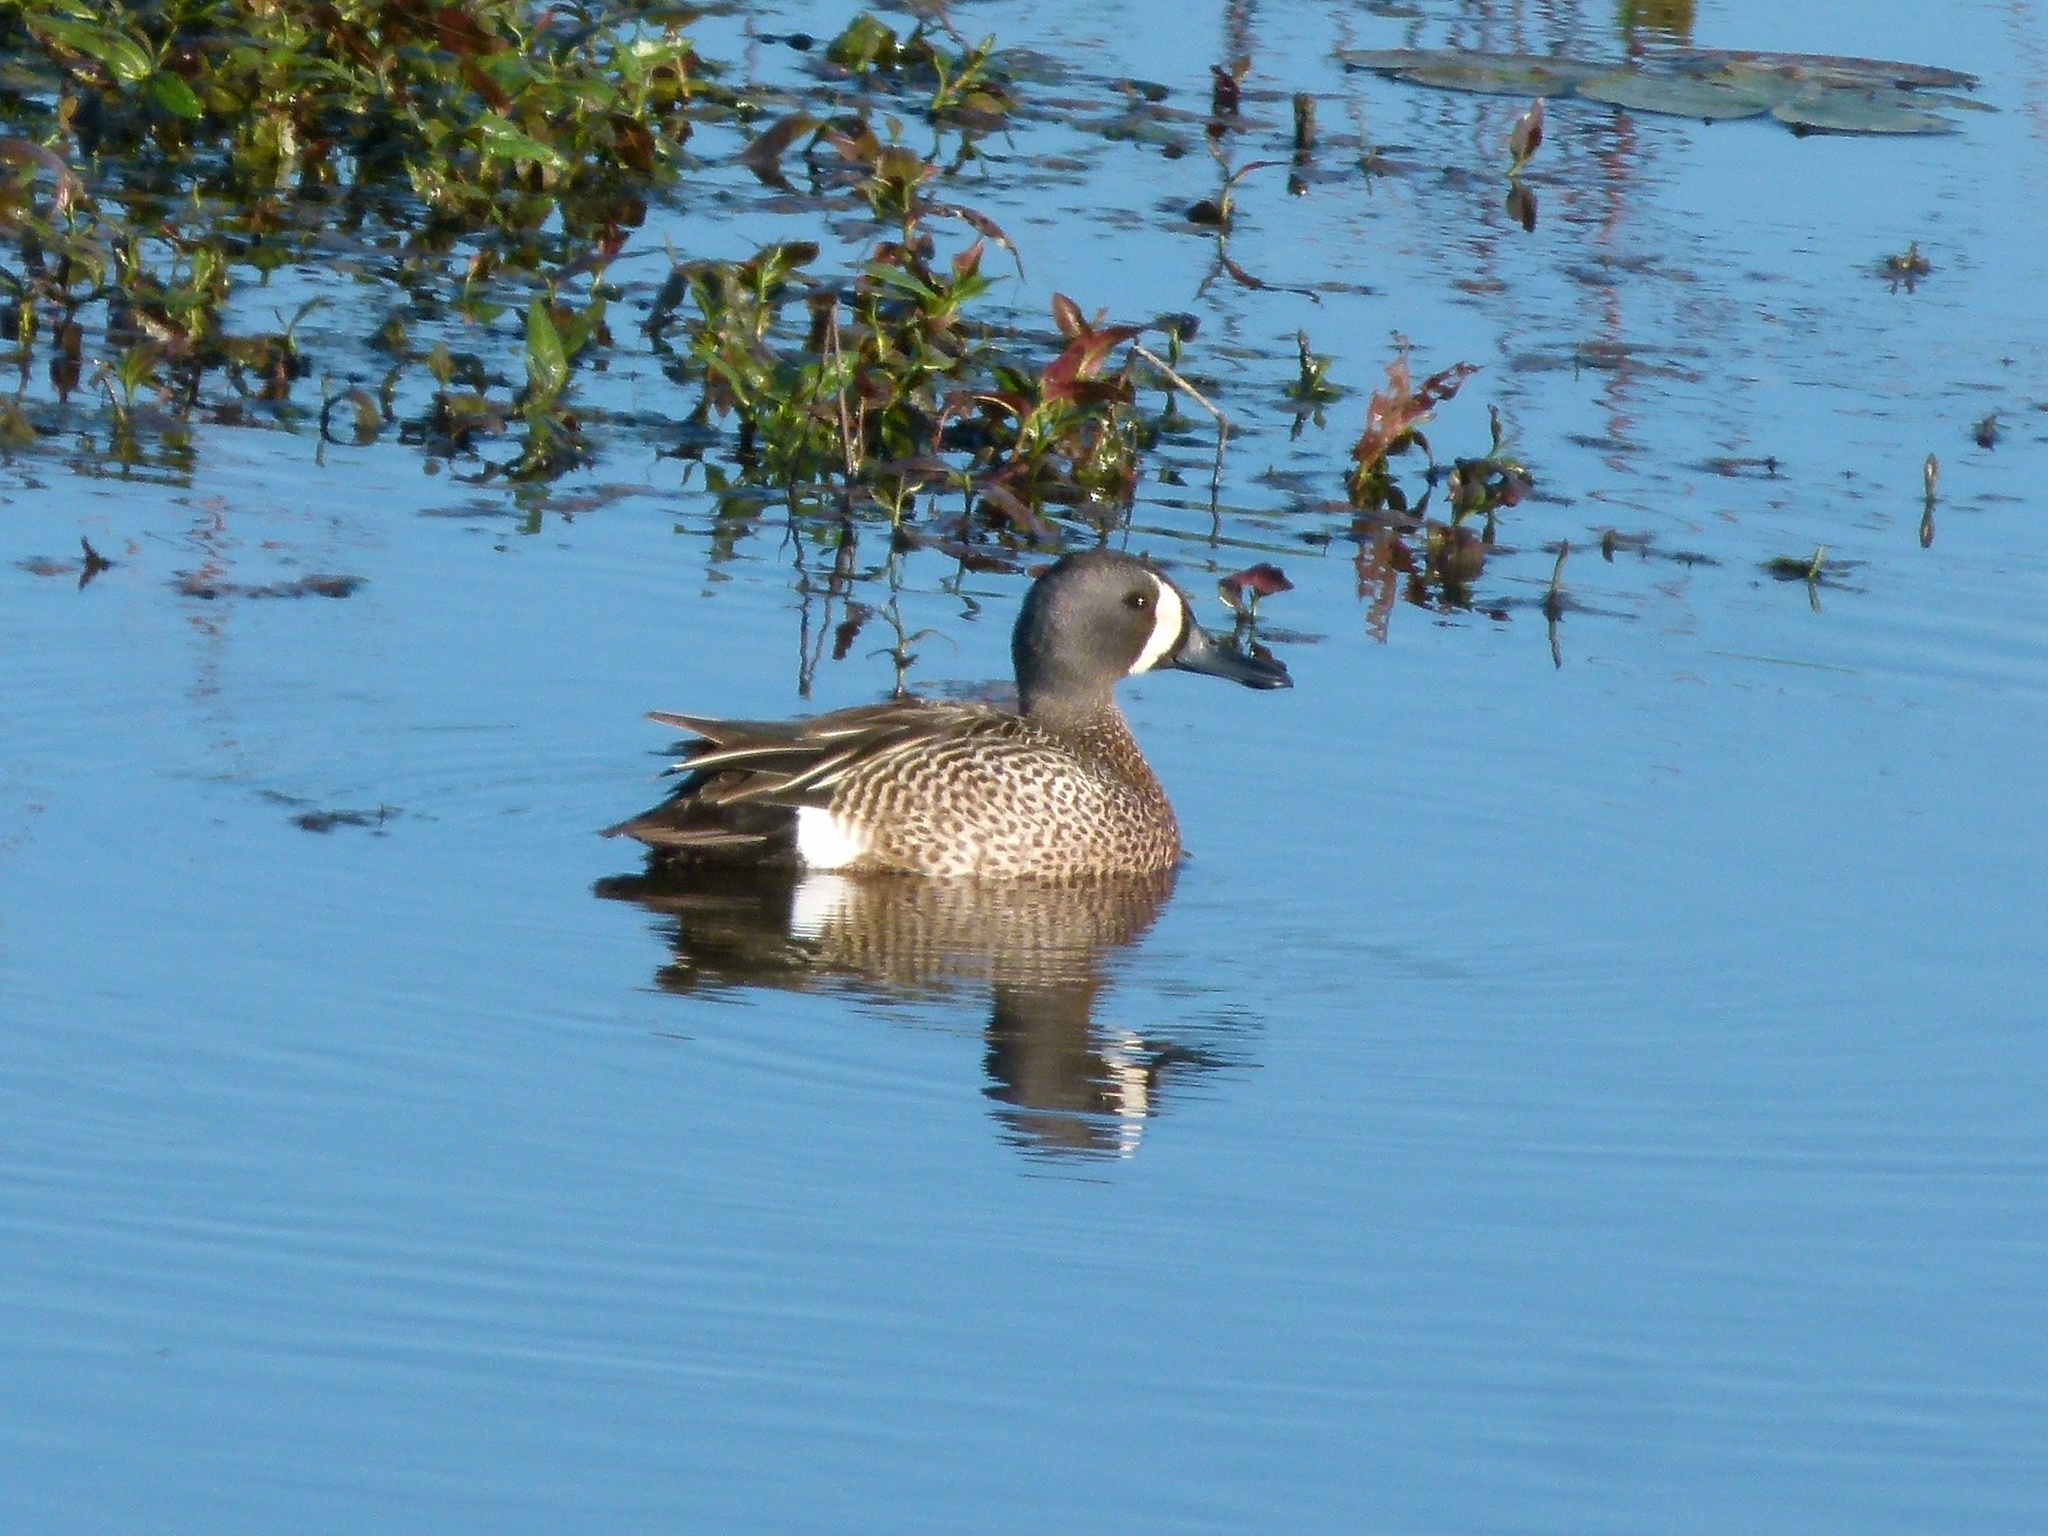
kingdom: Animalia
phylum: Chordata
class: Aves
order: Anseriformes
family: Anatidae
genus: Spatula
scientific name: Spatula discors
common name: Blue-winged teal
